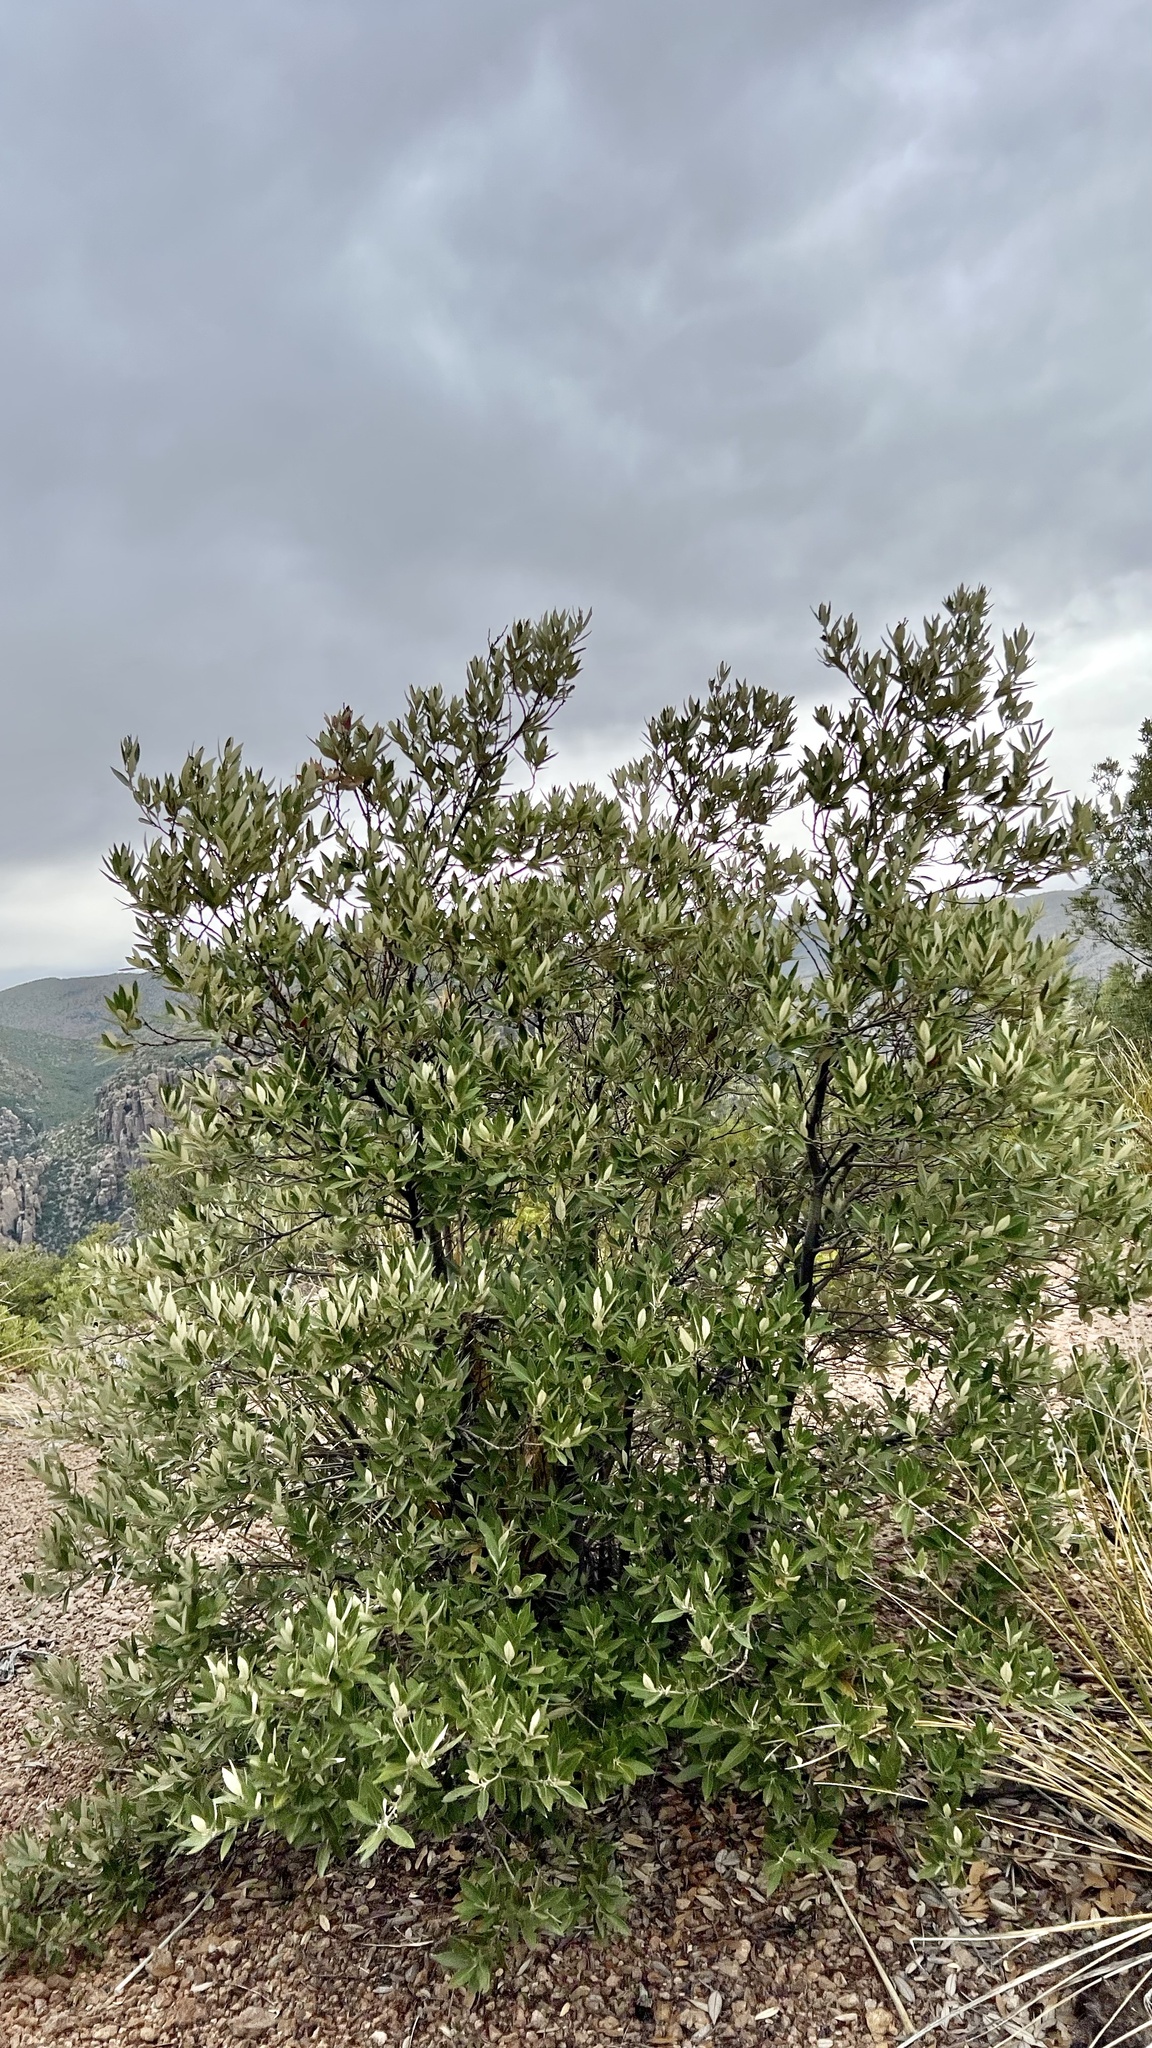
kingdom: Plantae
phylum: Tracheophyta
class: Magnoliopsida
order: Fagales
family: Fagaceae
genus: Quercus
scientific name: Quercus hypoleucoides
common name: Silverleaf oak
